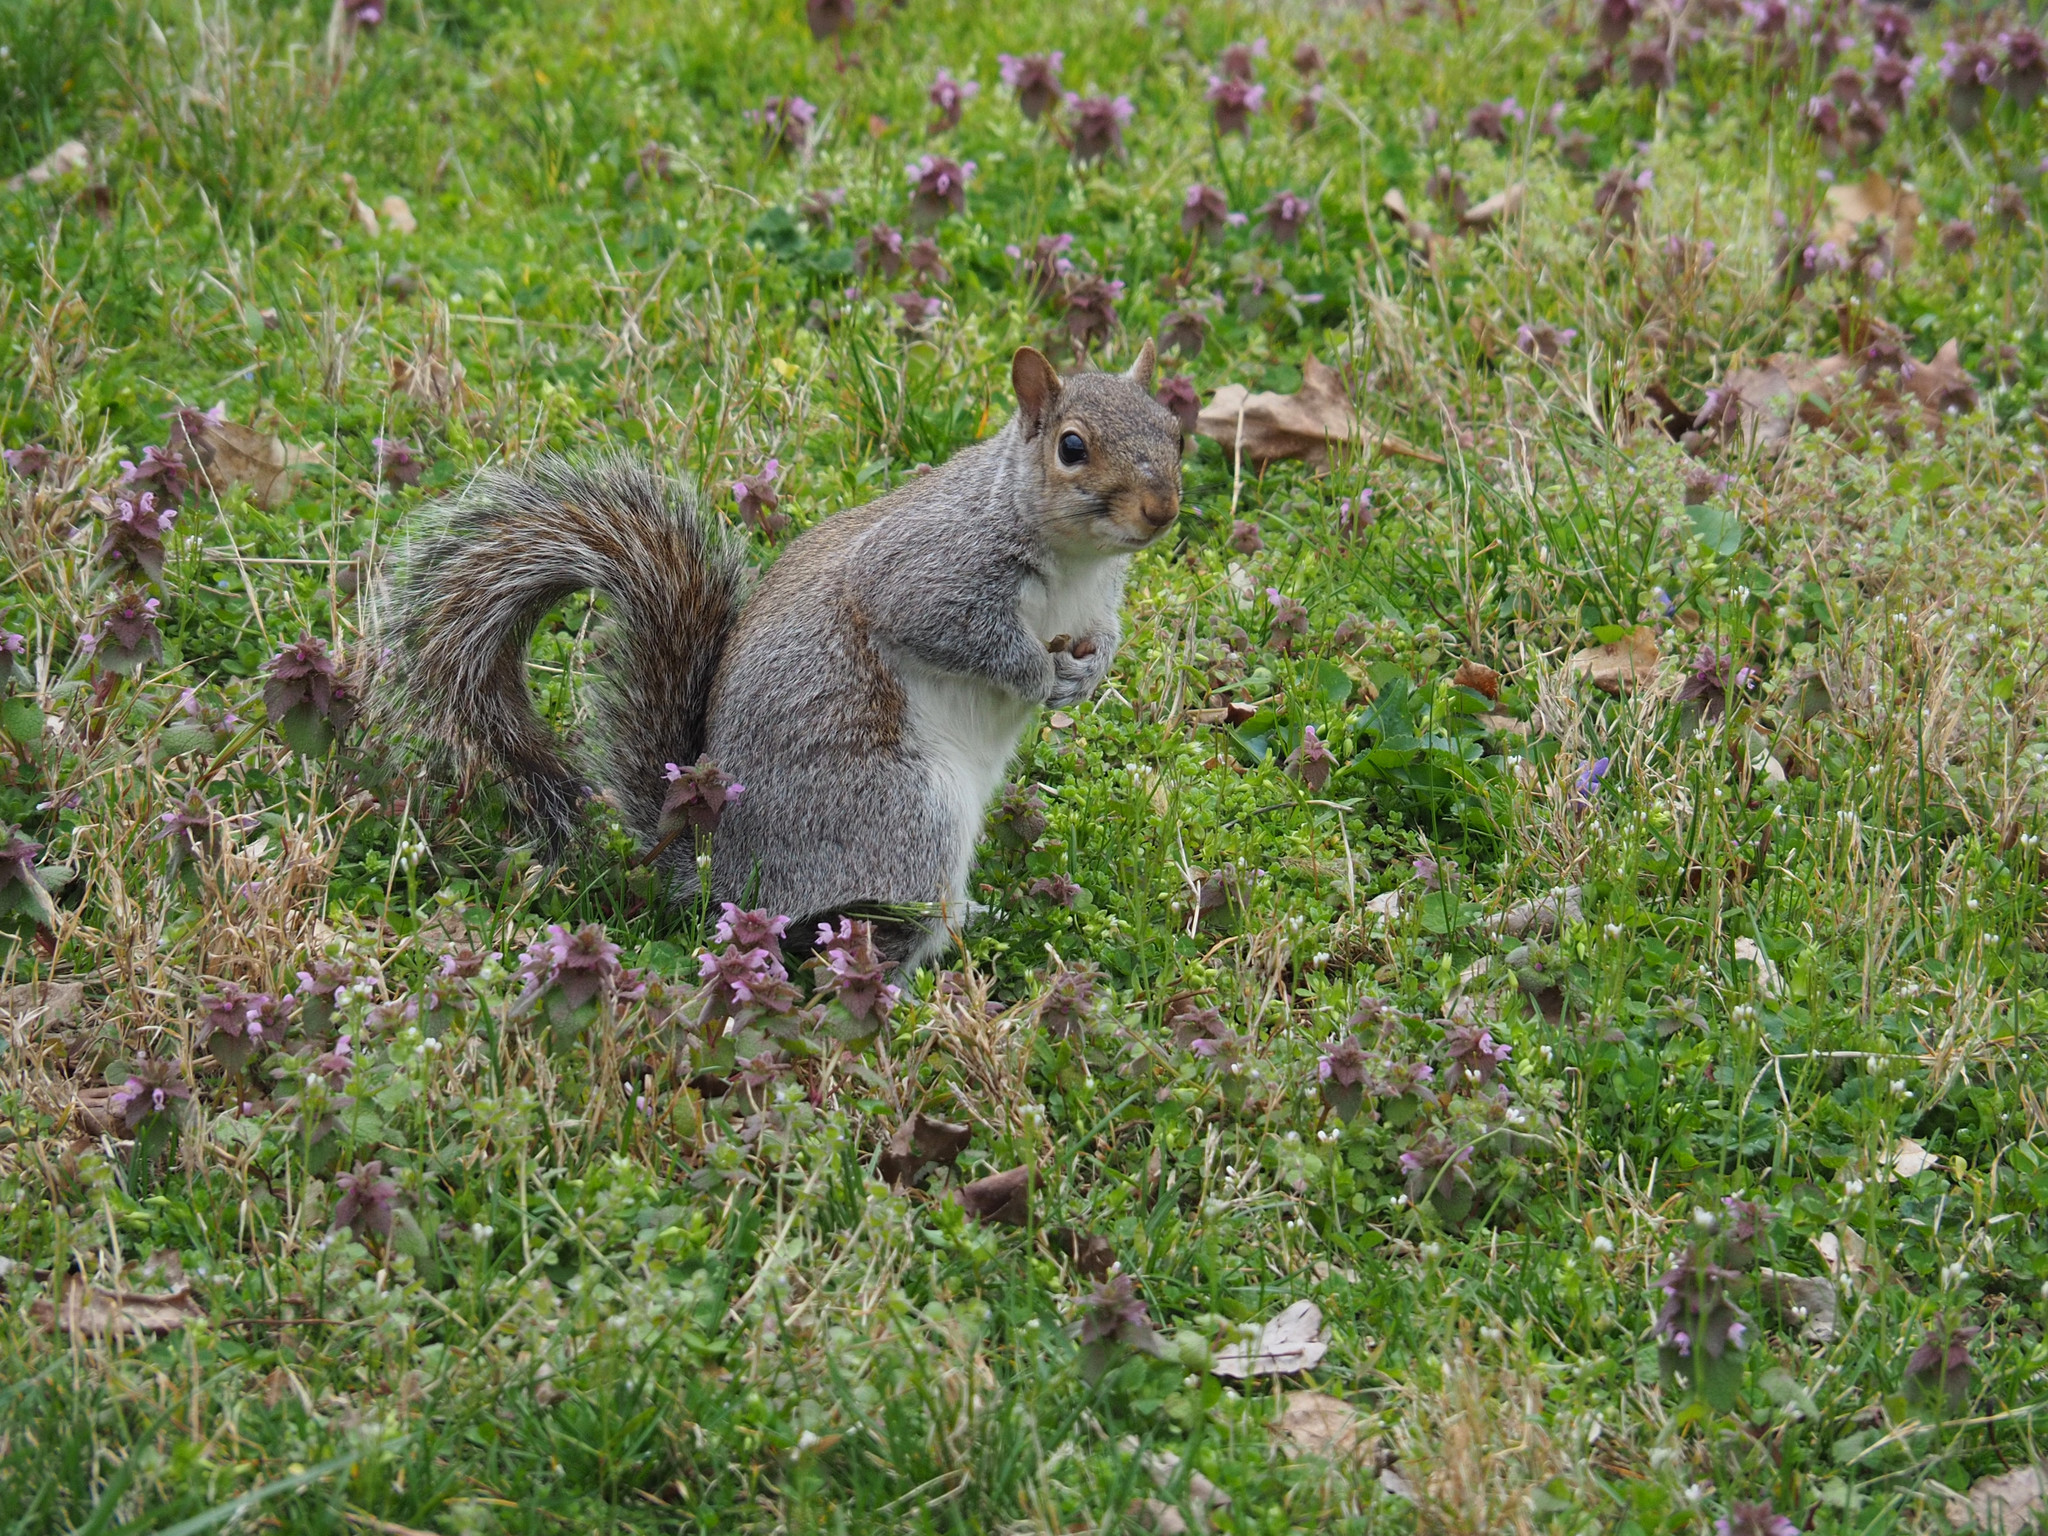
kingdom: Animalia
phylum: Chordata
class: Mammalia
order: Rodentia
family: Sciuridae
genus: Sciurus
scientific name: Sciurus carolinensis
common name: Eastern gray squirrel
